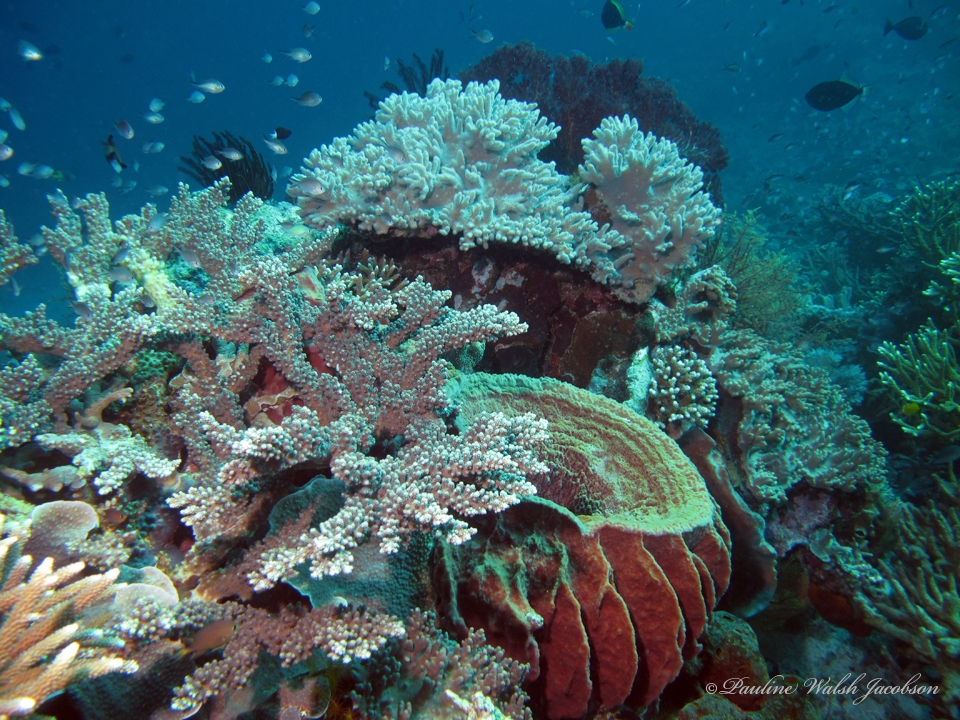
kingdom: Animalia
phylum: Cnidaria
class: Anthozoa
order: Scleractinia
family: Acroporidae
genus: Acropora
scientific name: Acropora florida
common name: Branch coral
